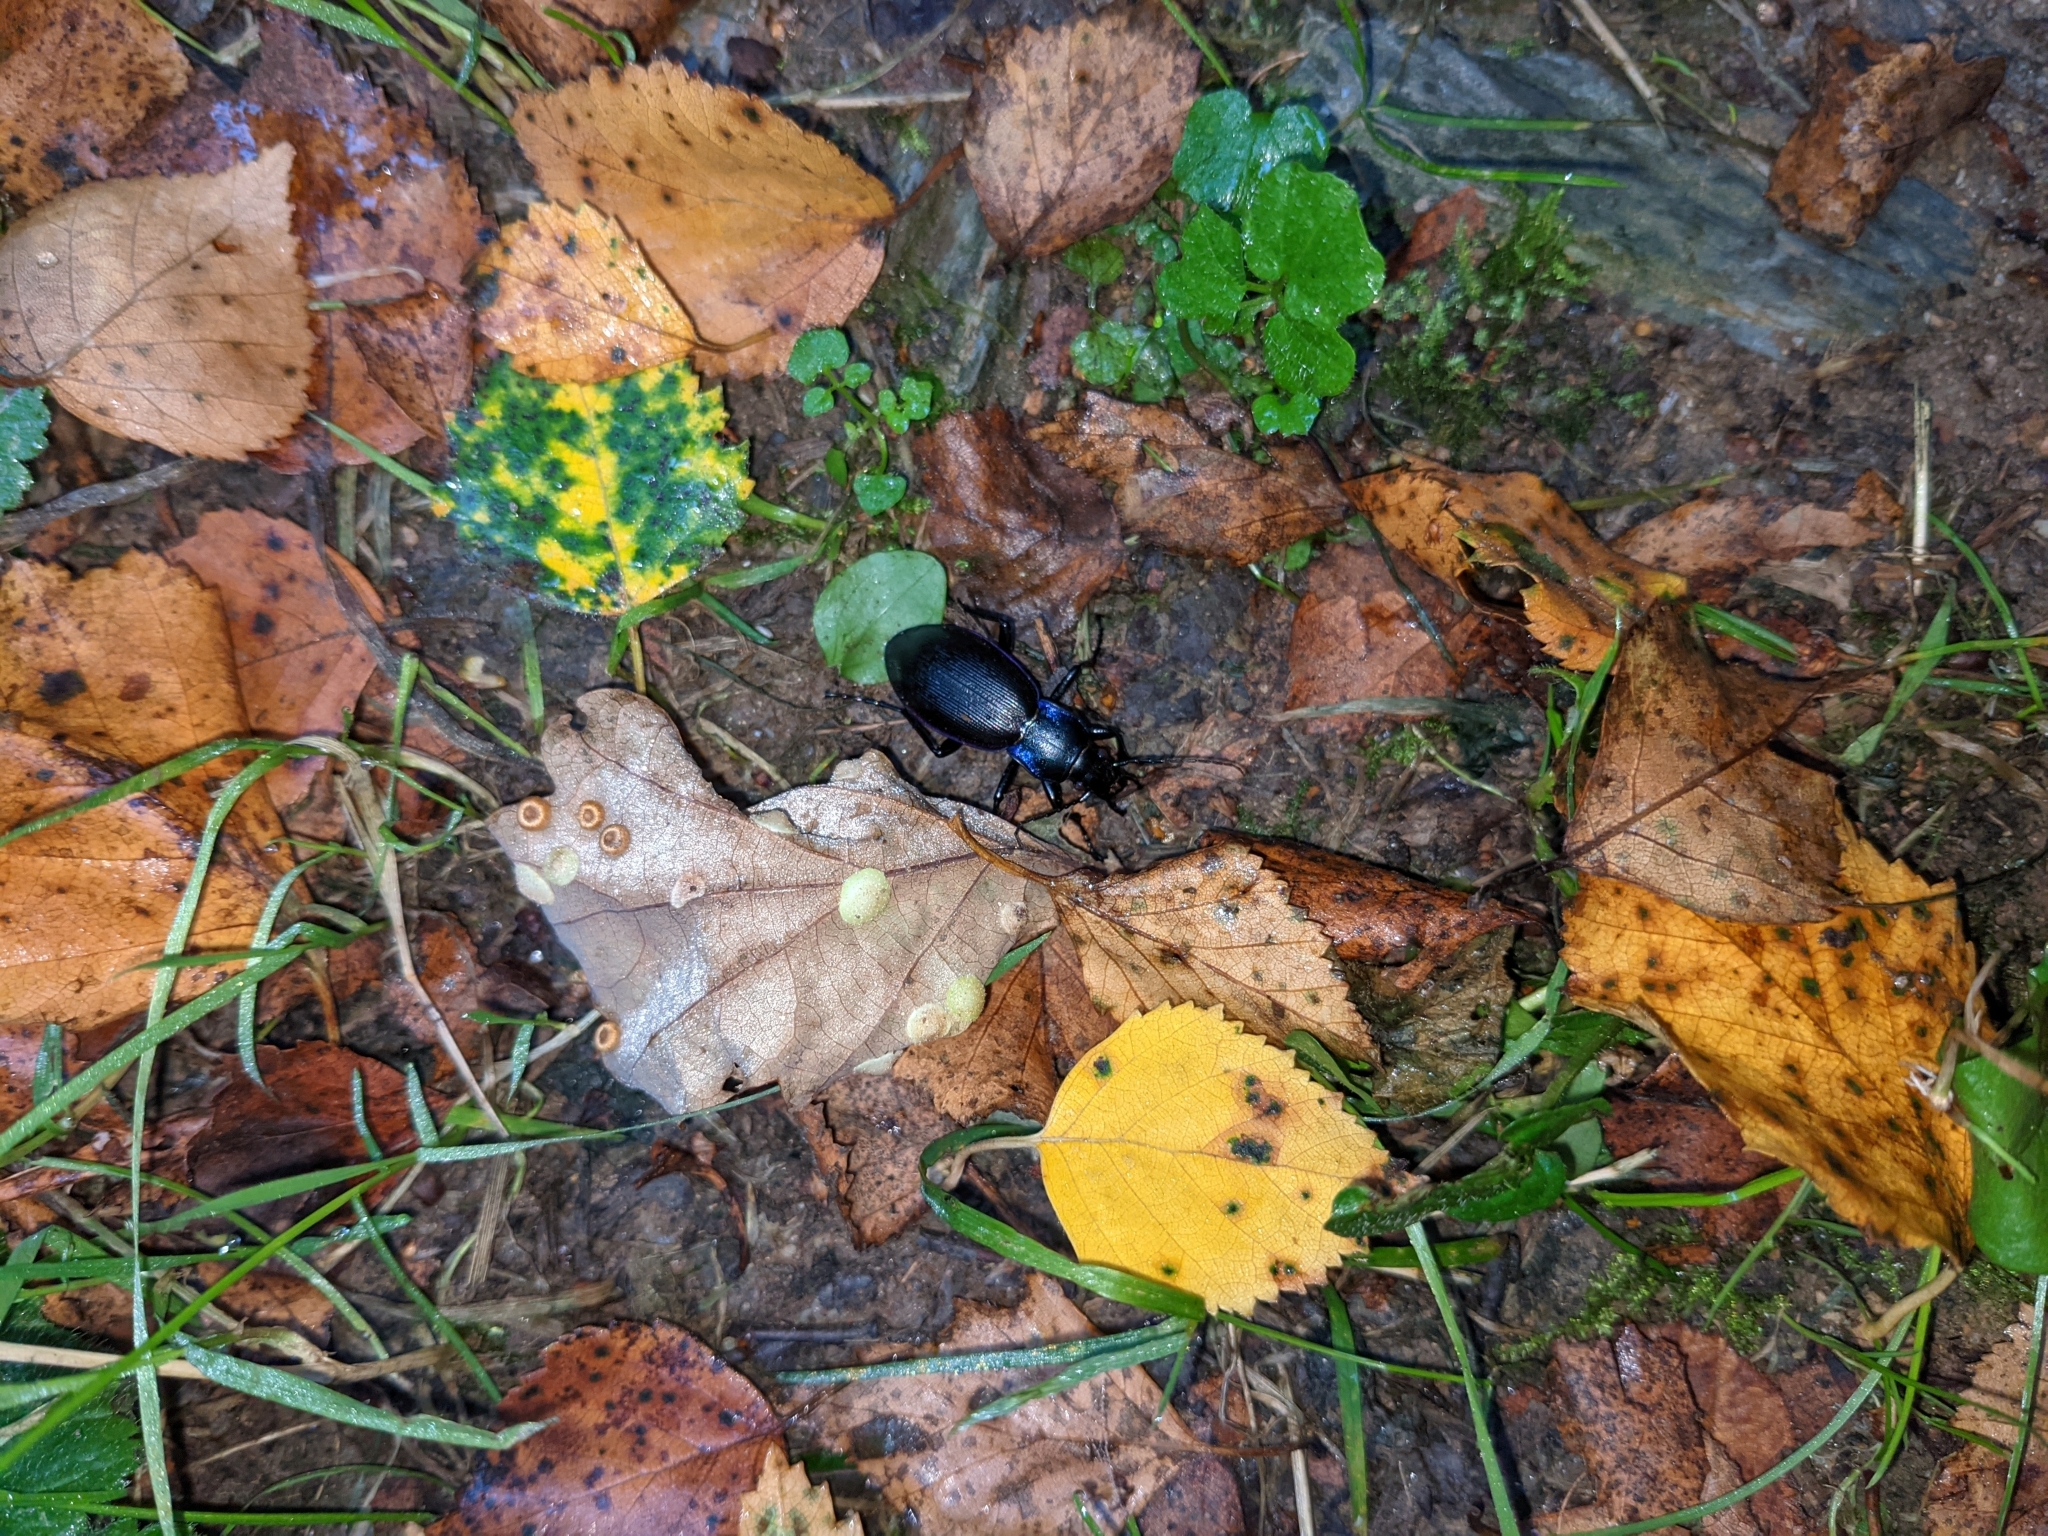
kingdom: Animalia
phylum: Arthropoda
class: Insecta
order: Coleoptera
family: Carabidae
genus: Carabus
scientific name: Carabus purpurascens
